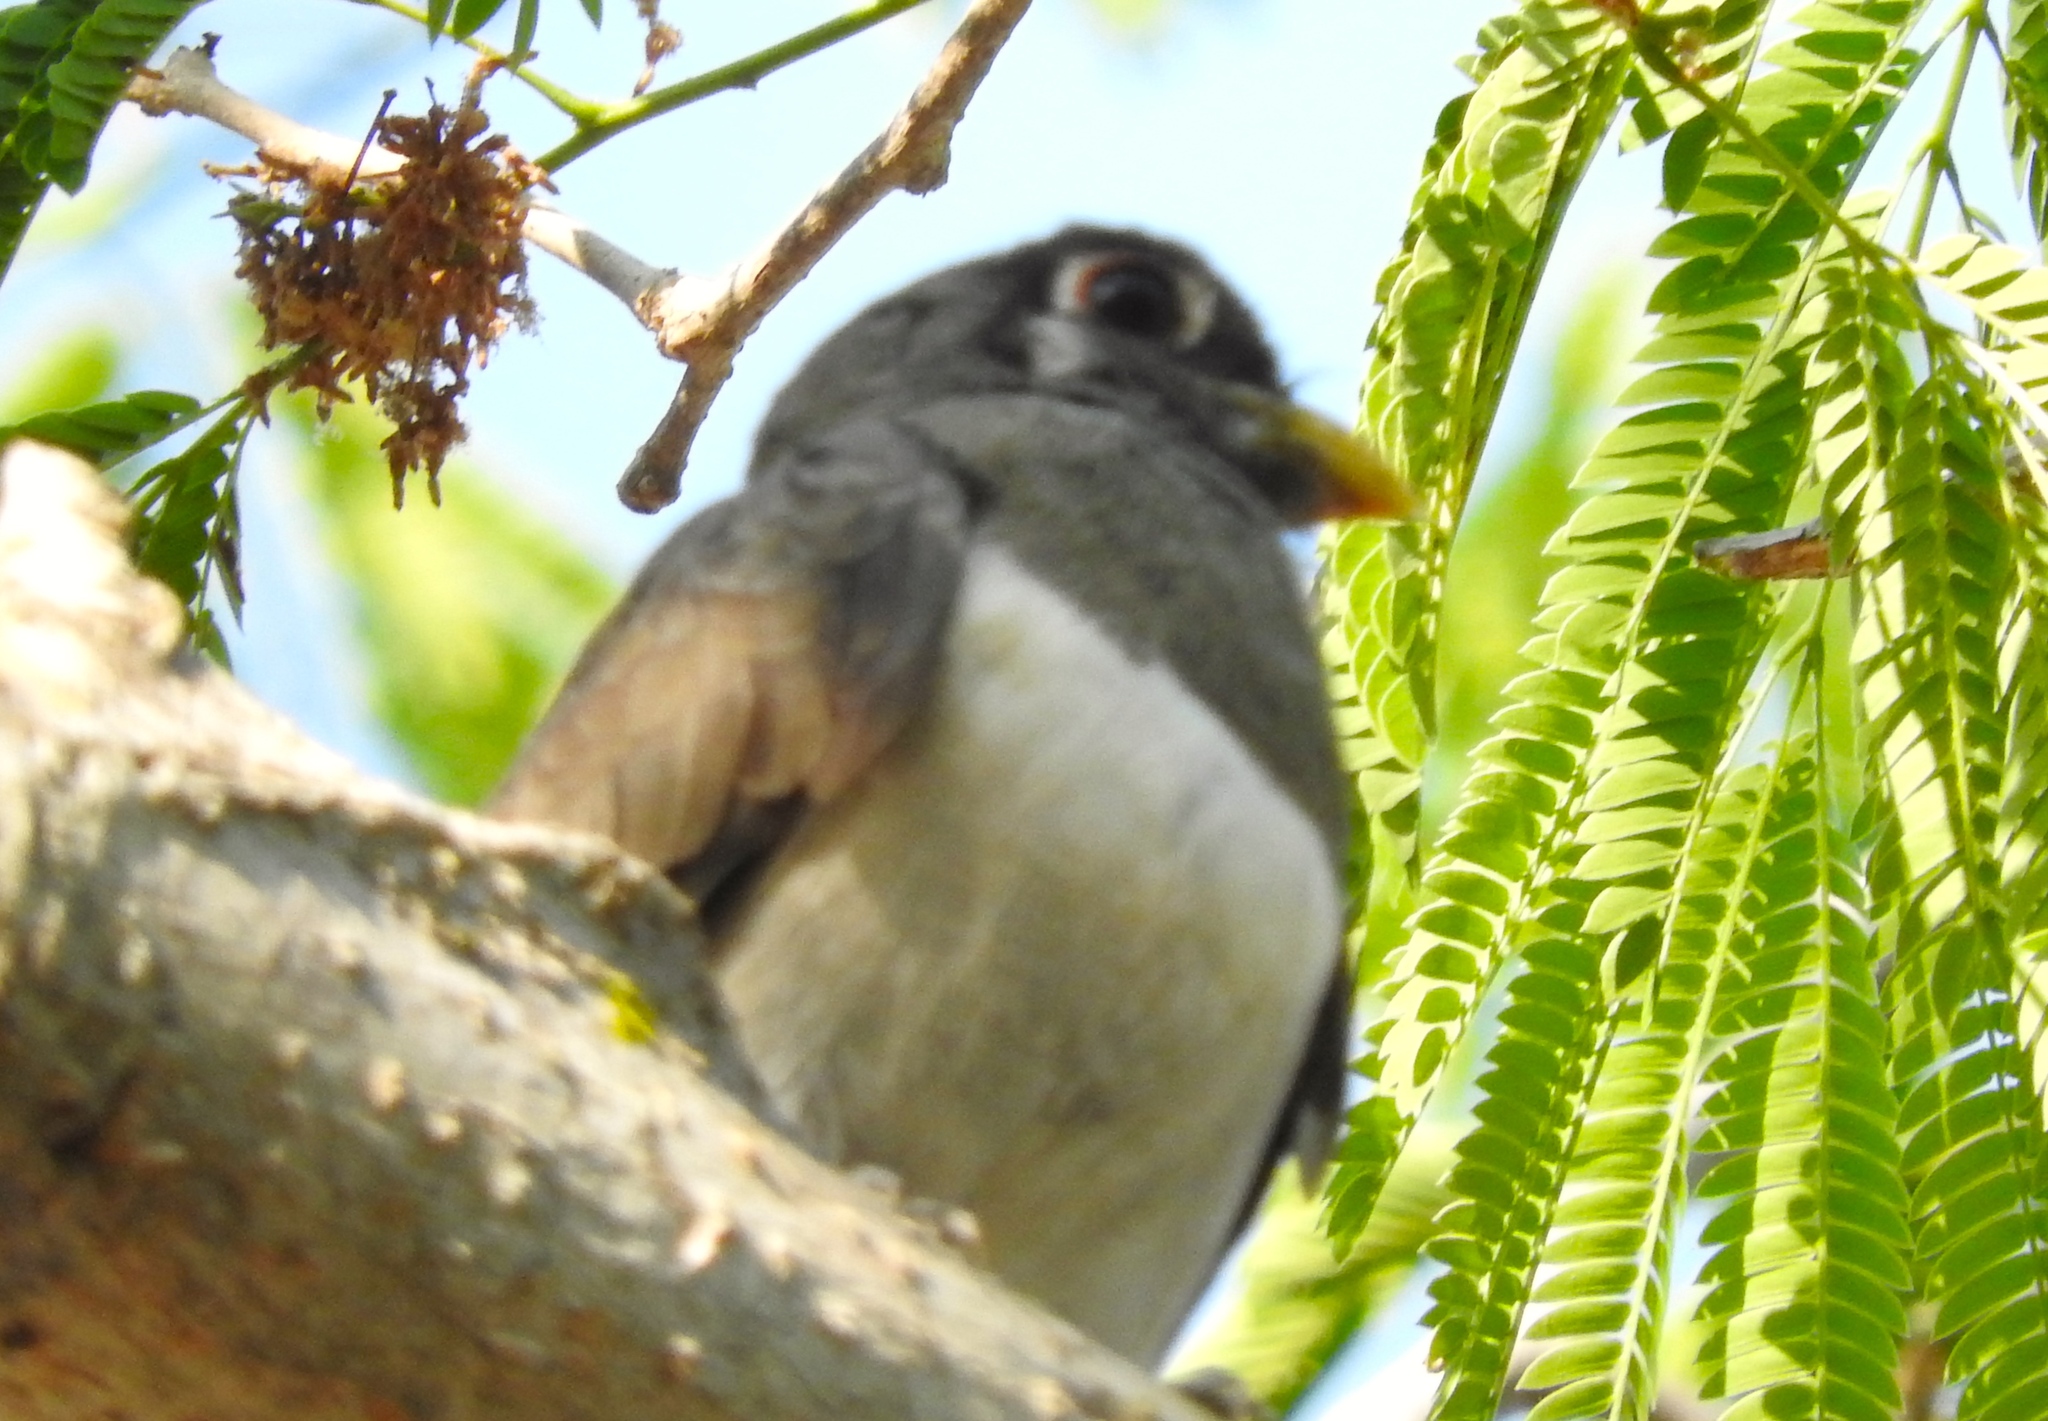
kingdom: Animalia
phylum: Chordata
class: Aves
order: Trogoniformes
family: Trogonidae
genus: Trogon
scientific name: Trogon elegans
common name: Elegant trogon
